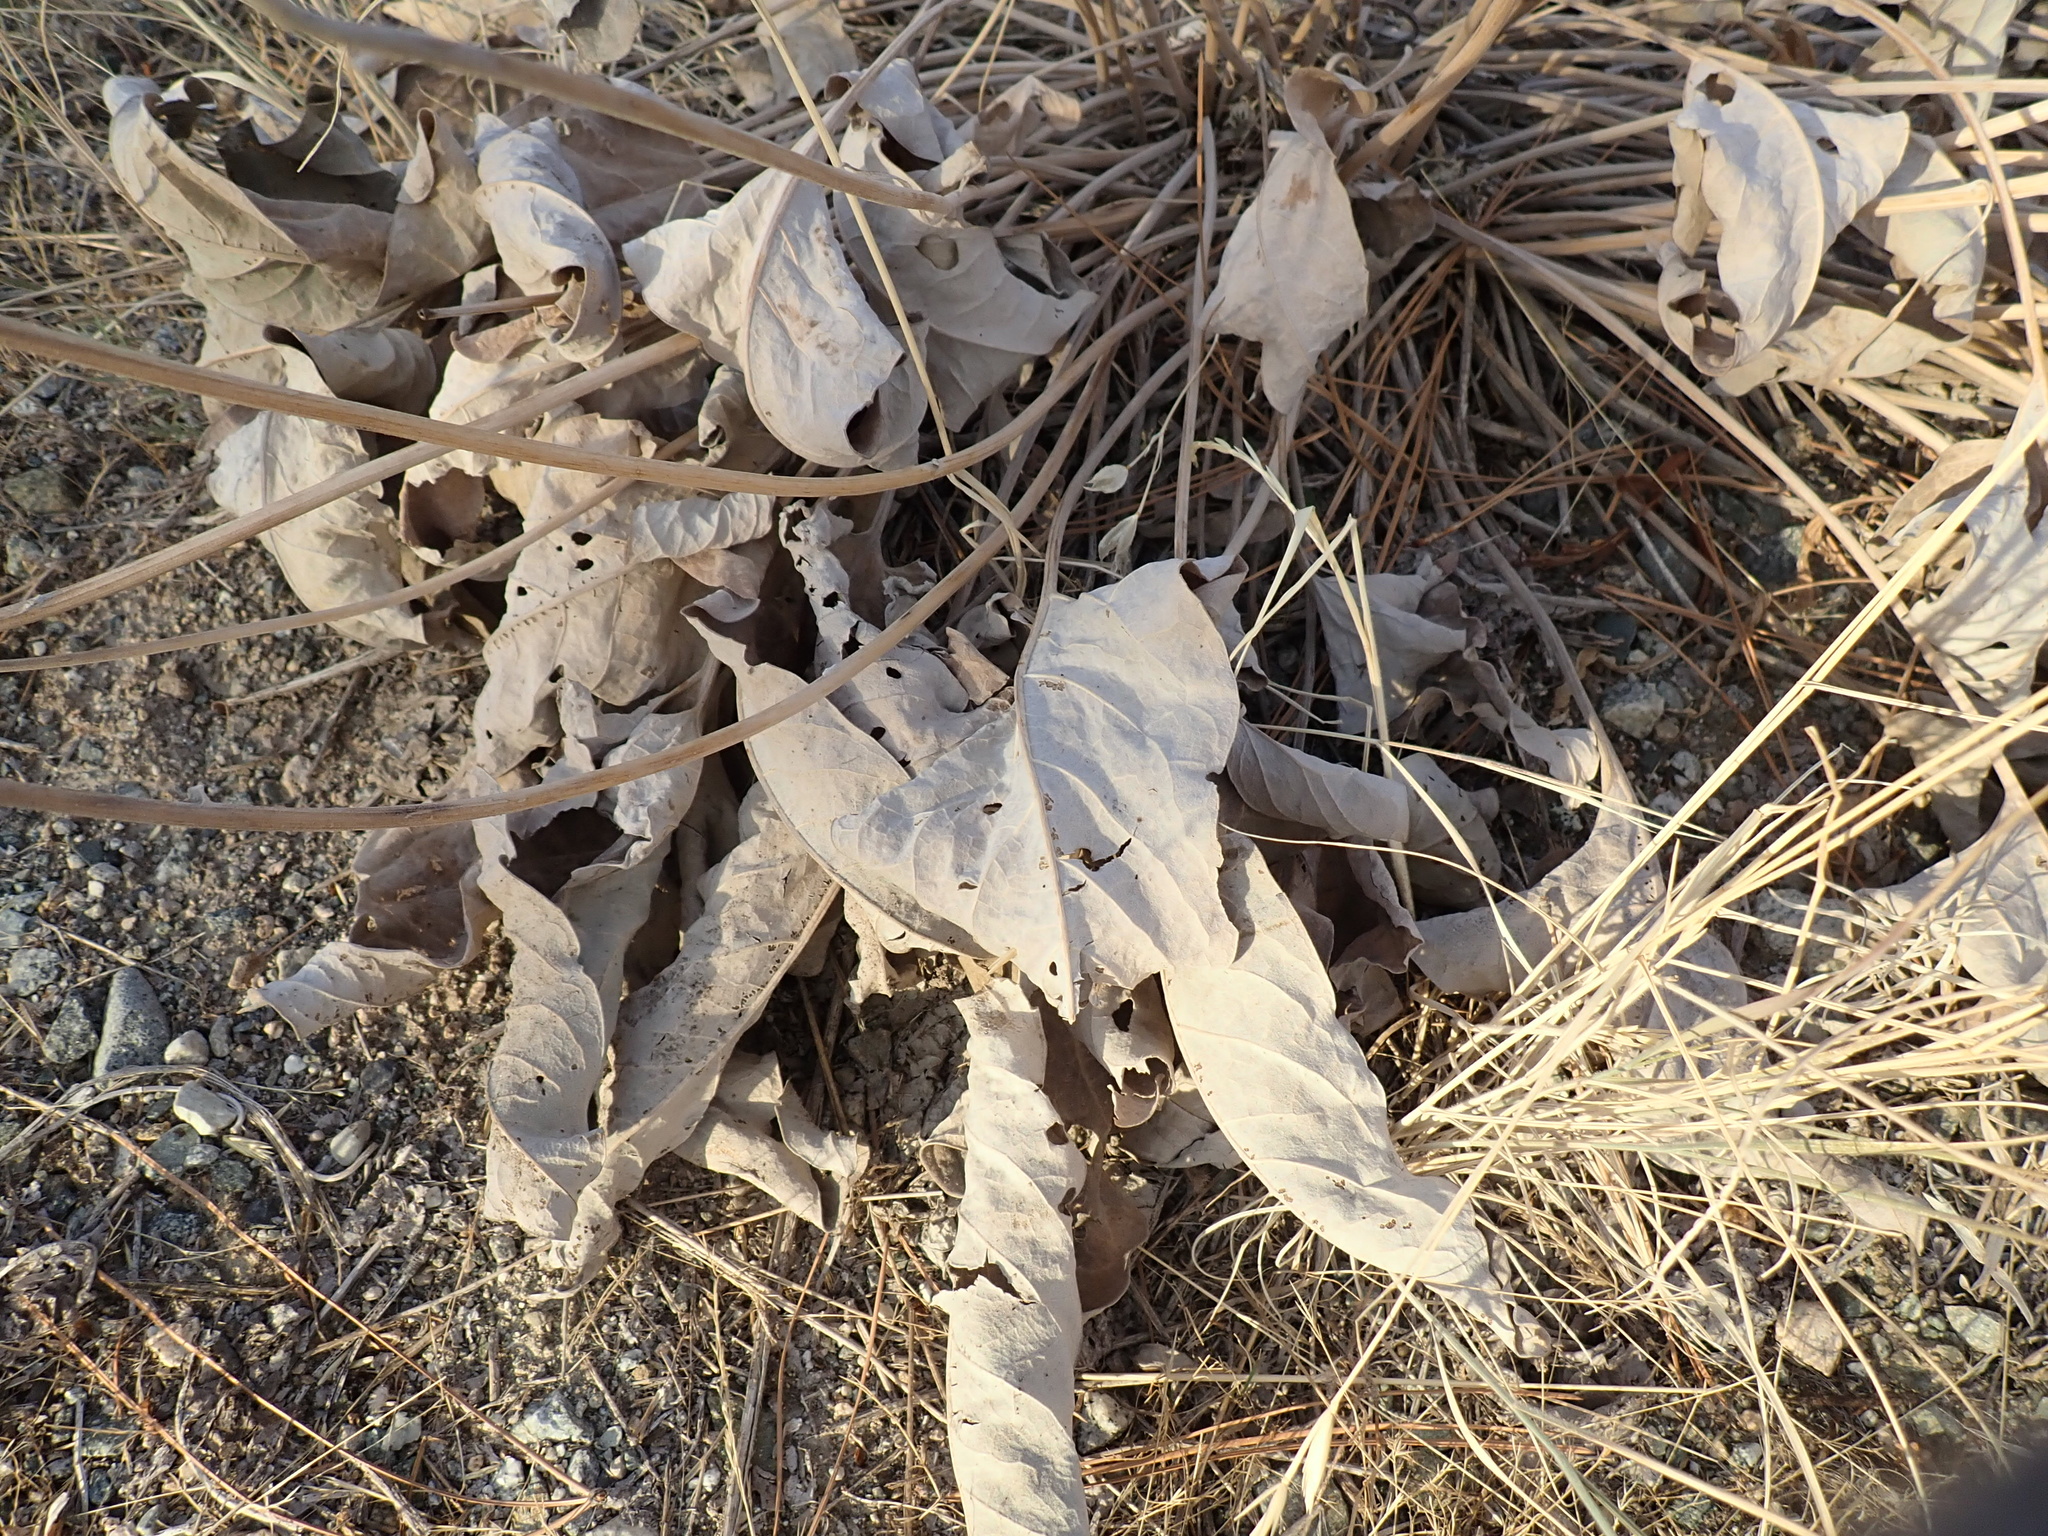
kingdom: Plantae
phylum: Tracheophyta
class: Magnoliopsida
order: Asterales
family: Asteraceae
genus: Wyethia
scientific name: Wyethia sagittata
